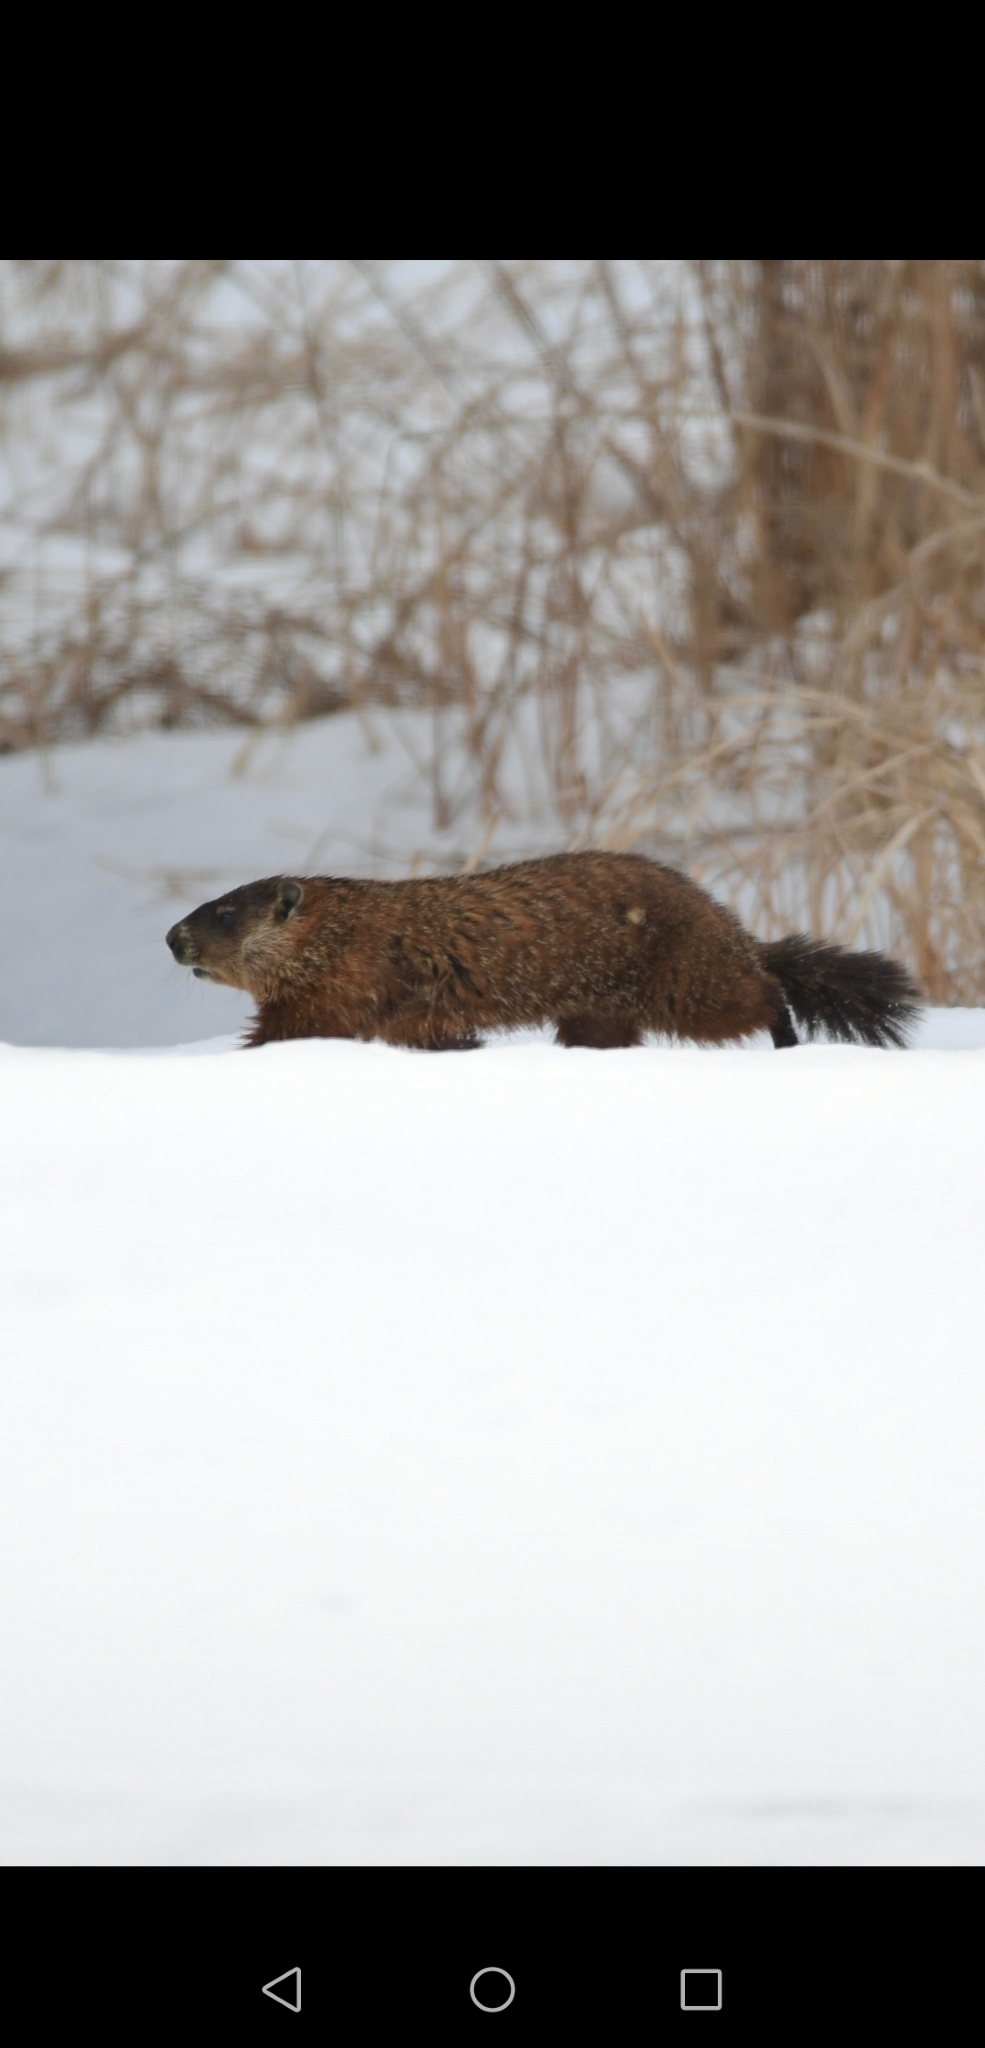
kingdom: Animalia
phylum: Chordata
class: Mammalia
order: Rodentia
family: Sciuridae
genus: Marmota
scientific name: Marmota monax
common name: Groundhog
